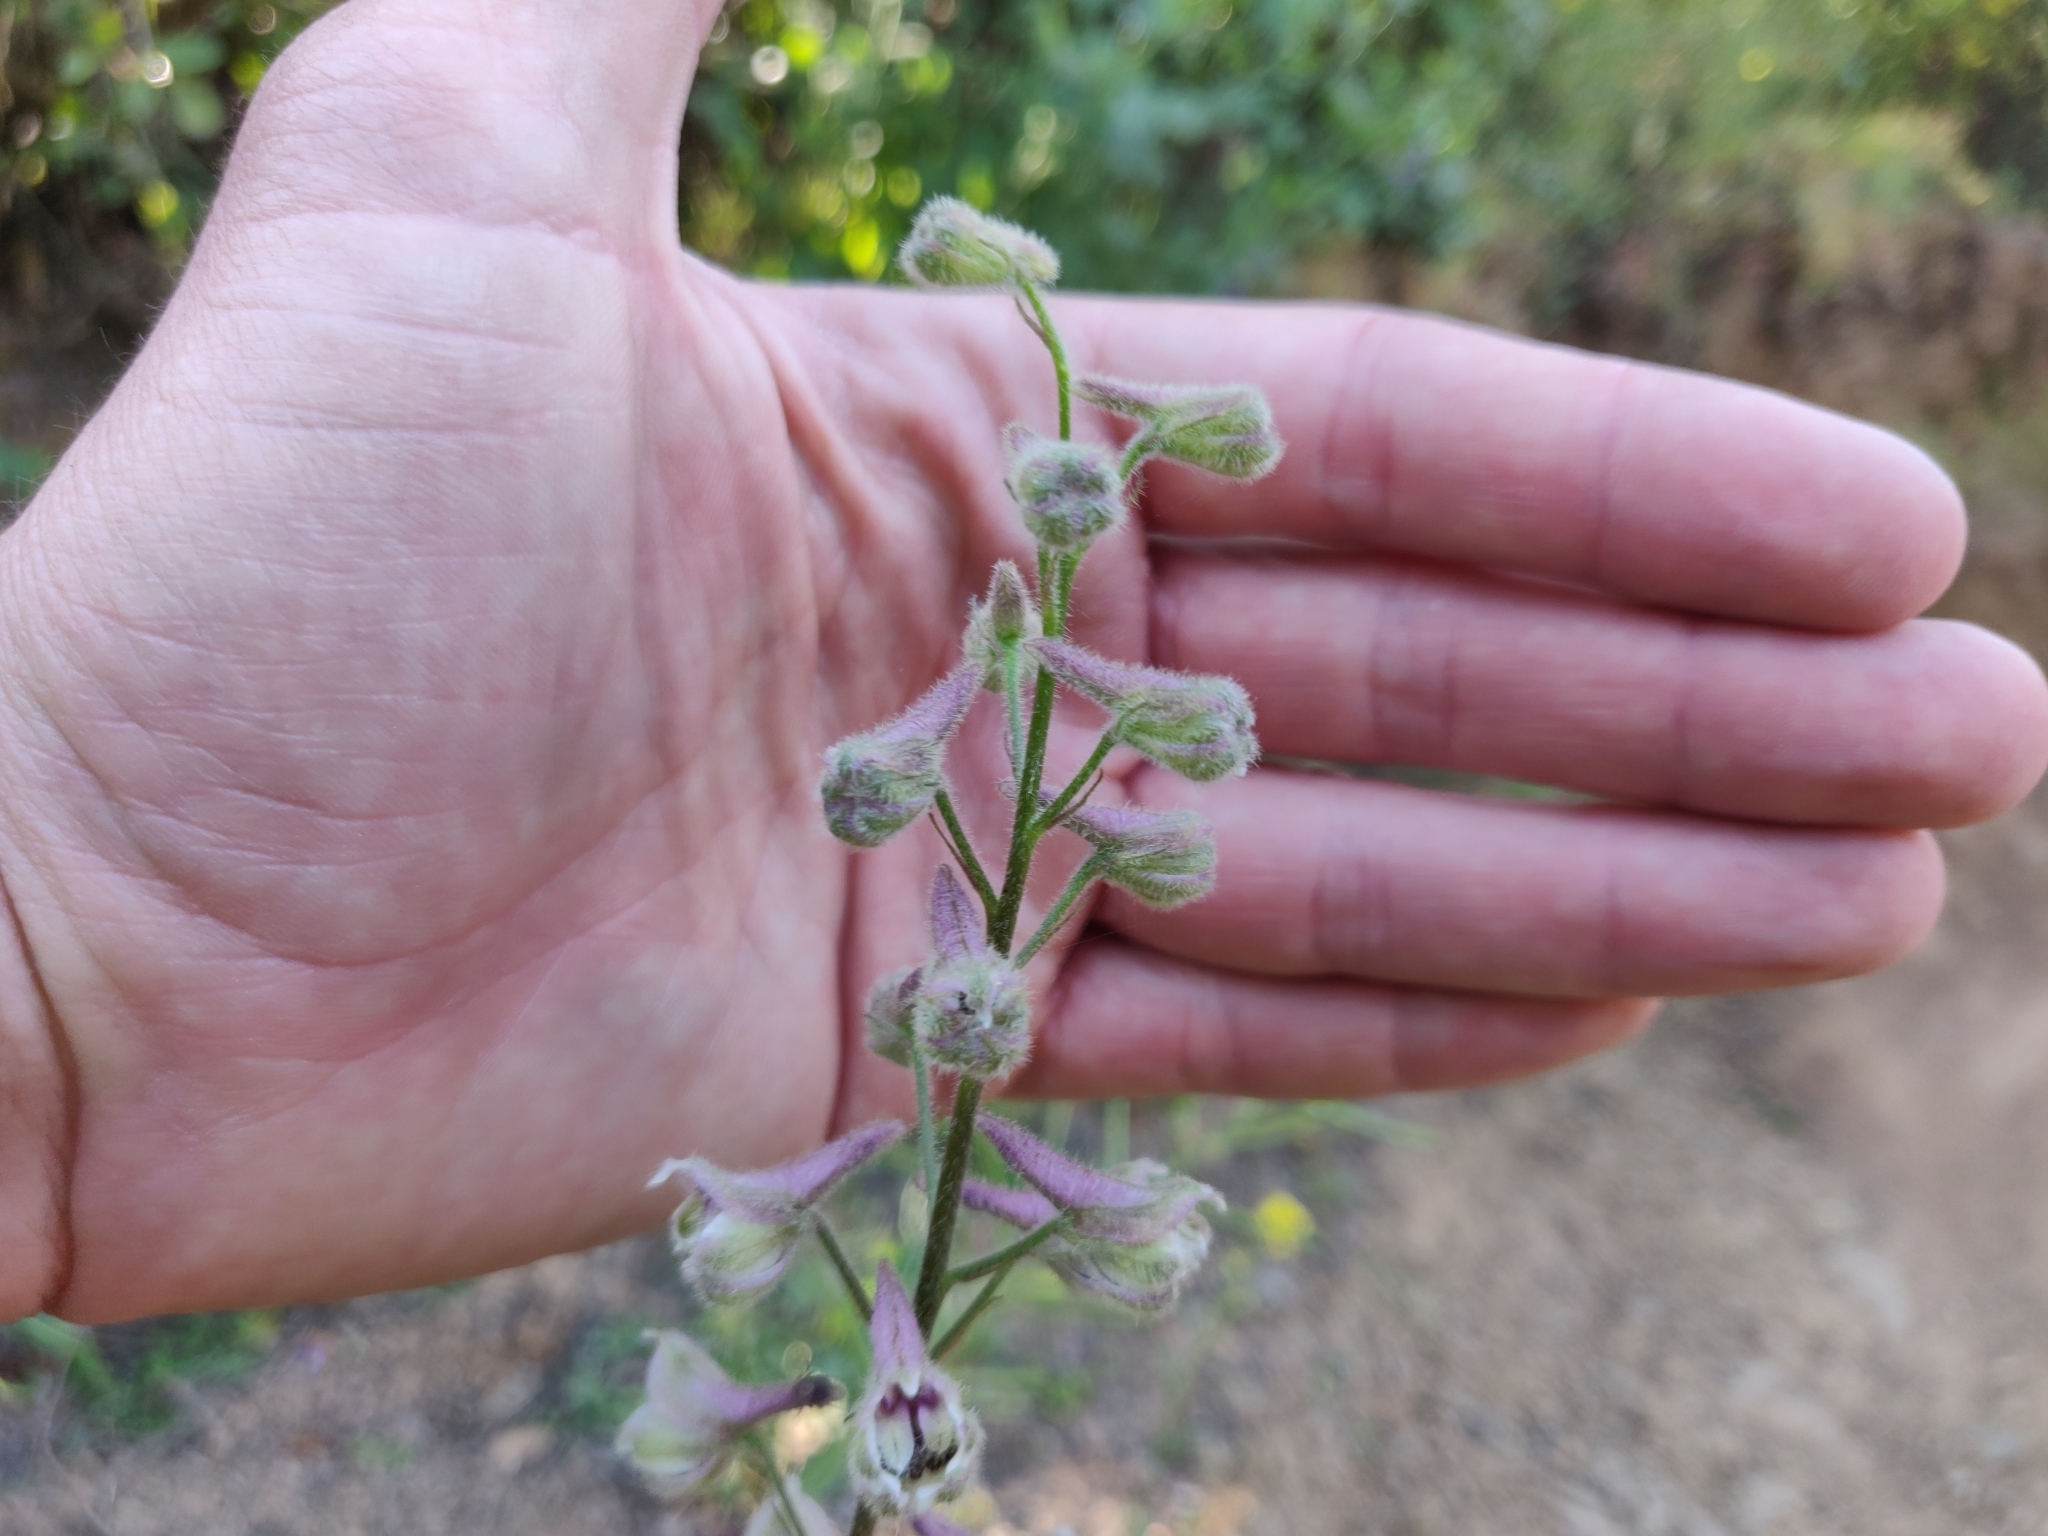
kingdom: Plantae
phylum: Tracheophyta
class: Magnoliopsida
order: Ranunculales
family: Ranunculaceae
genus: Delphinium
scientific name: Delphinium californicum
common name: California larkspur
